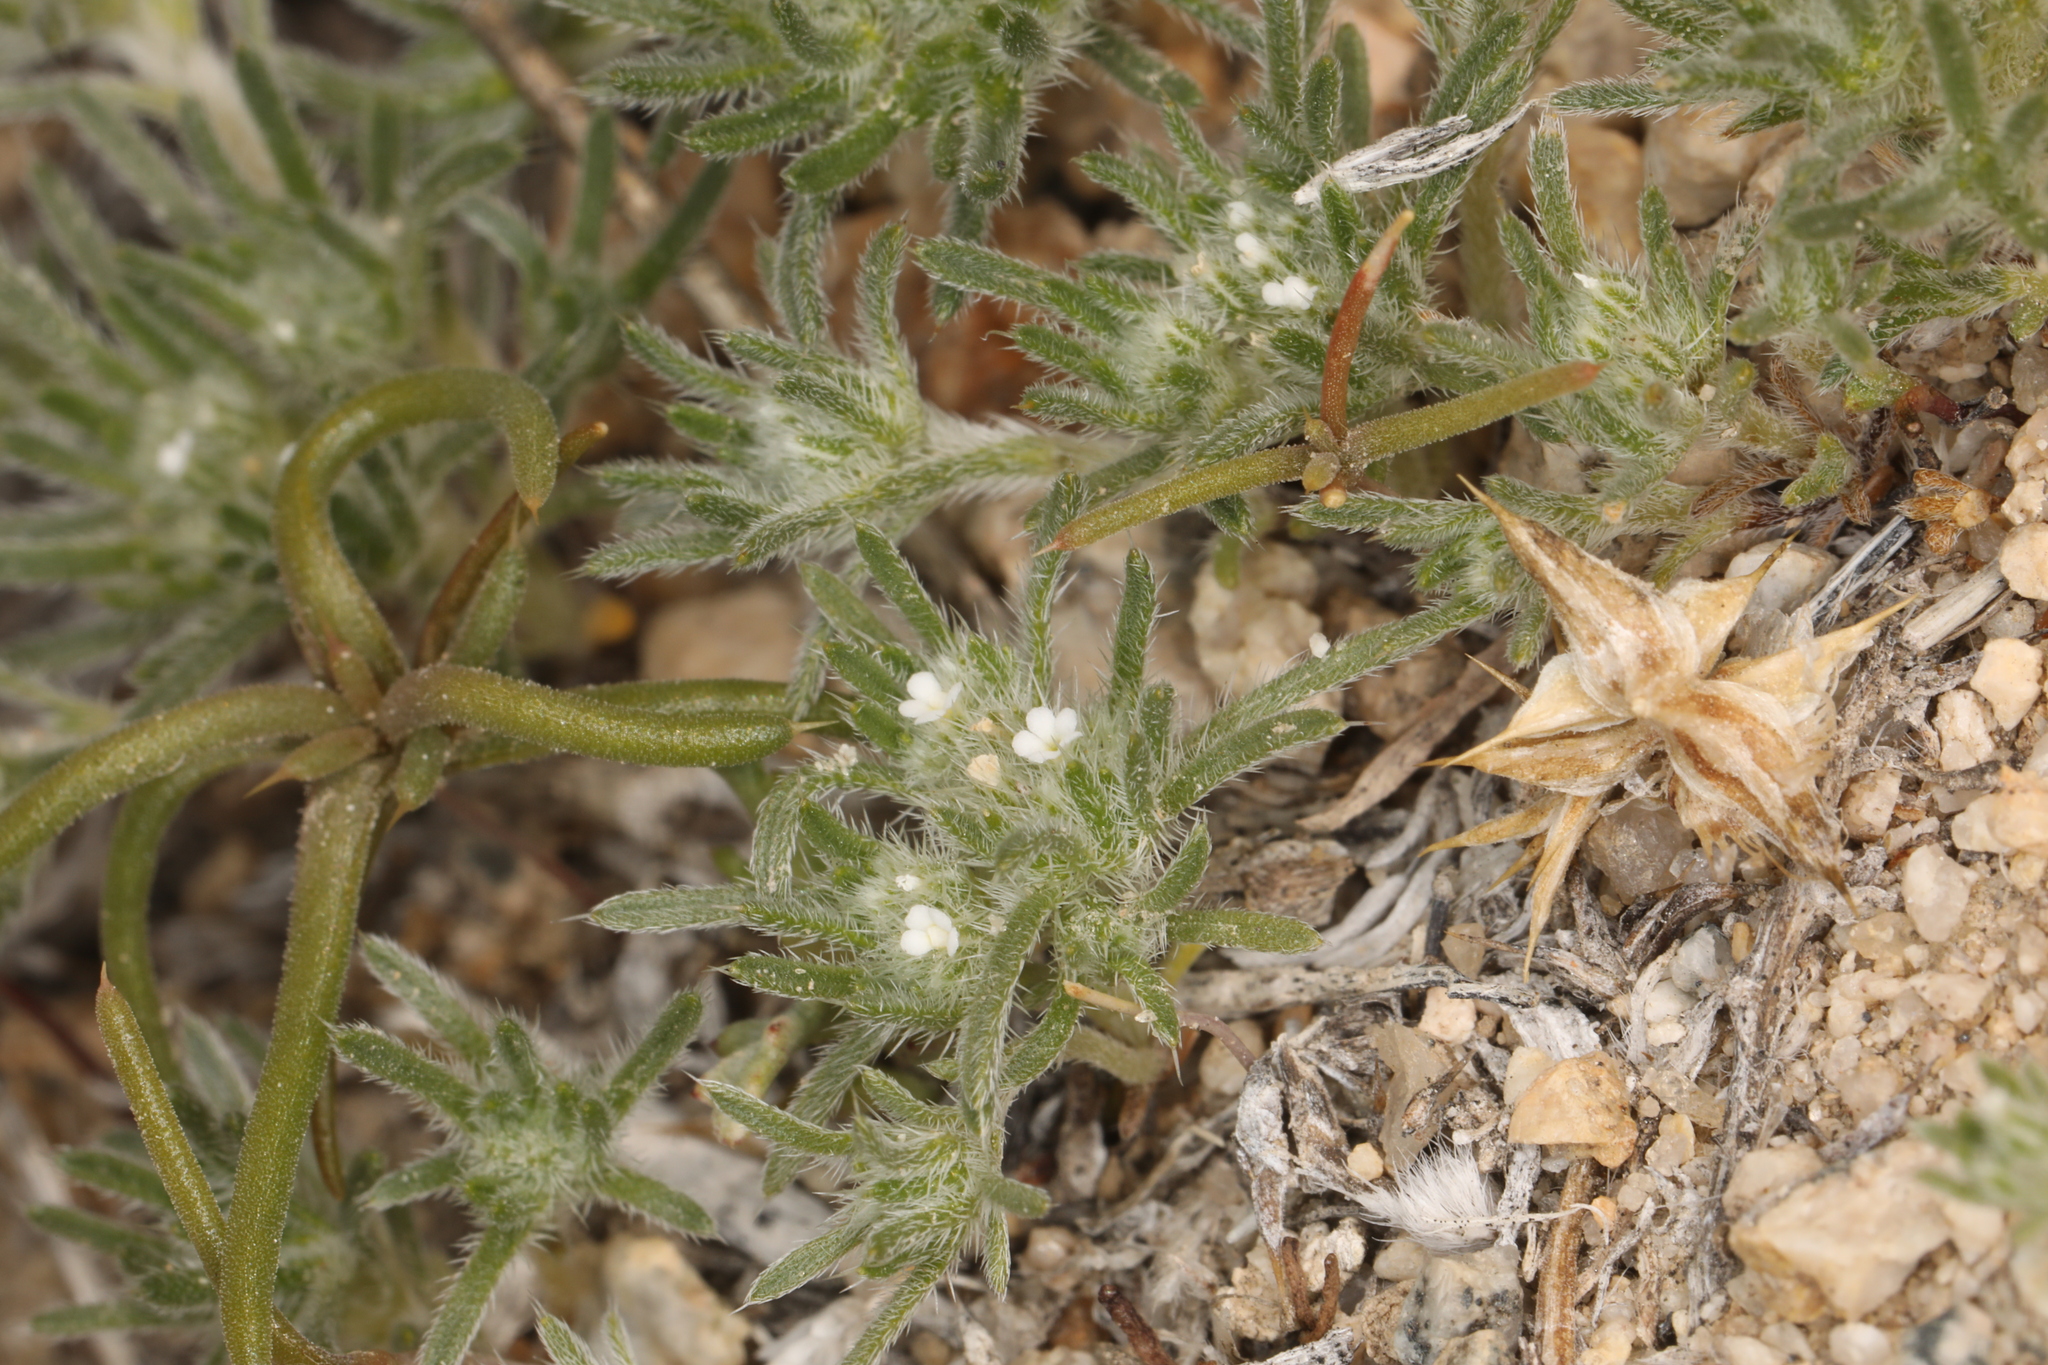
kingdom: Plantae
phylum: Tracheophyta
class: Magnoliopsida
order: Boraginales
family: Boraginaceae
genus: Greeneocharis
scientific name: Greeneocharis circumscissa
